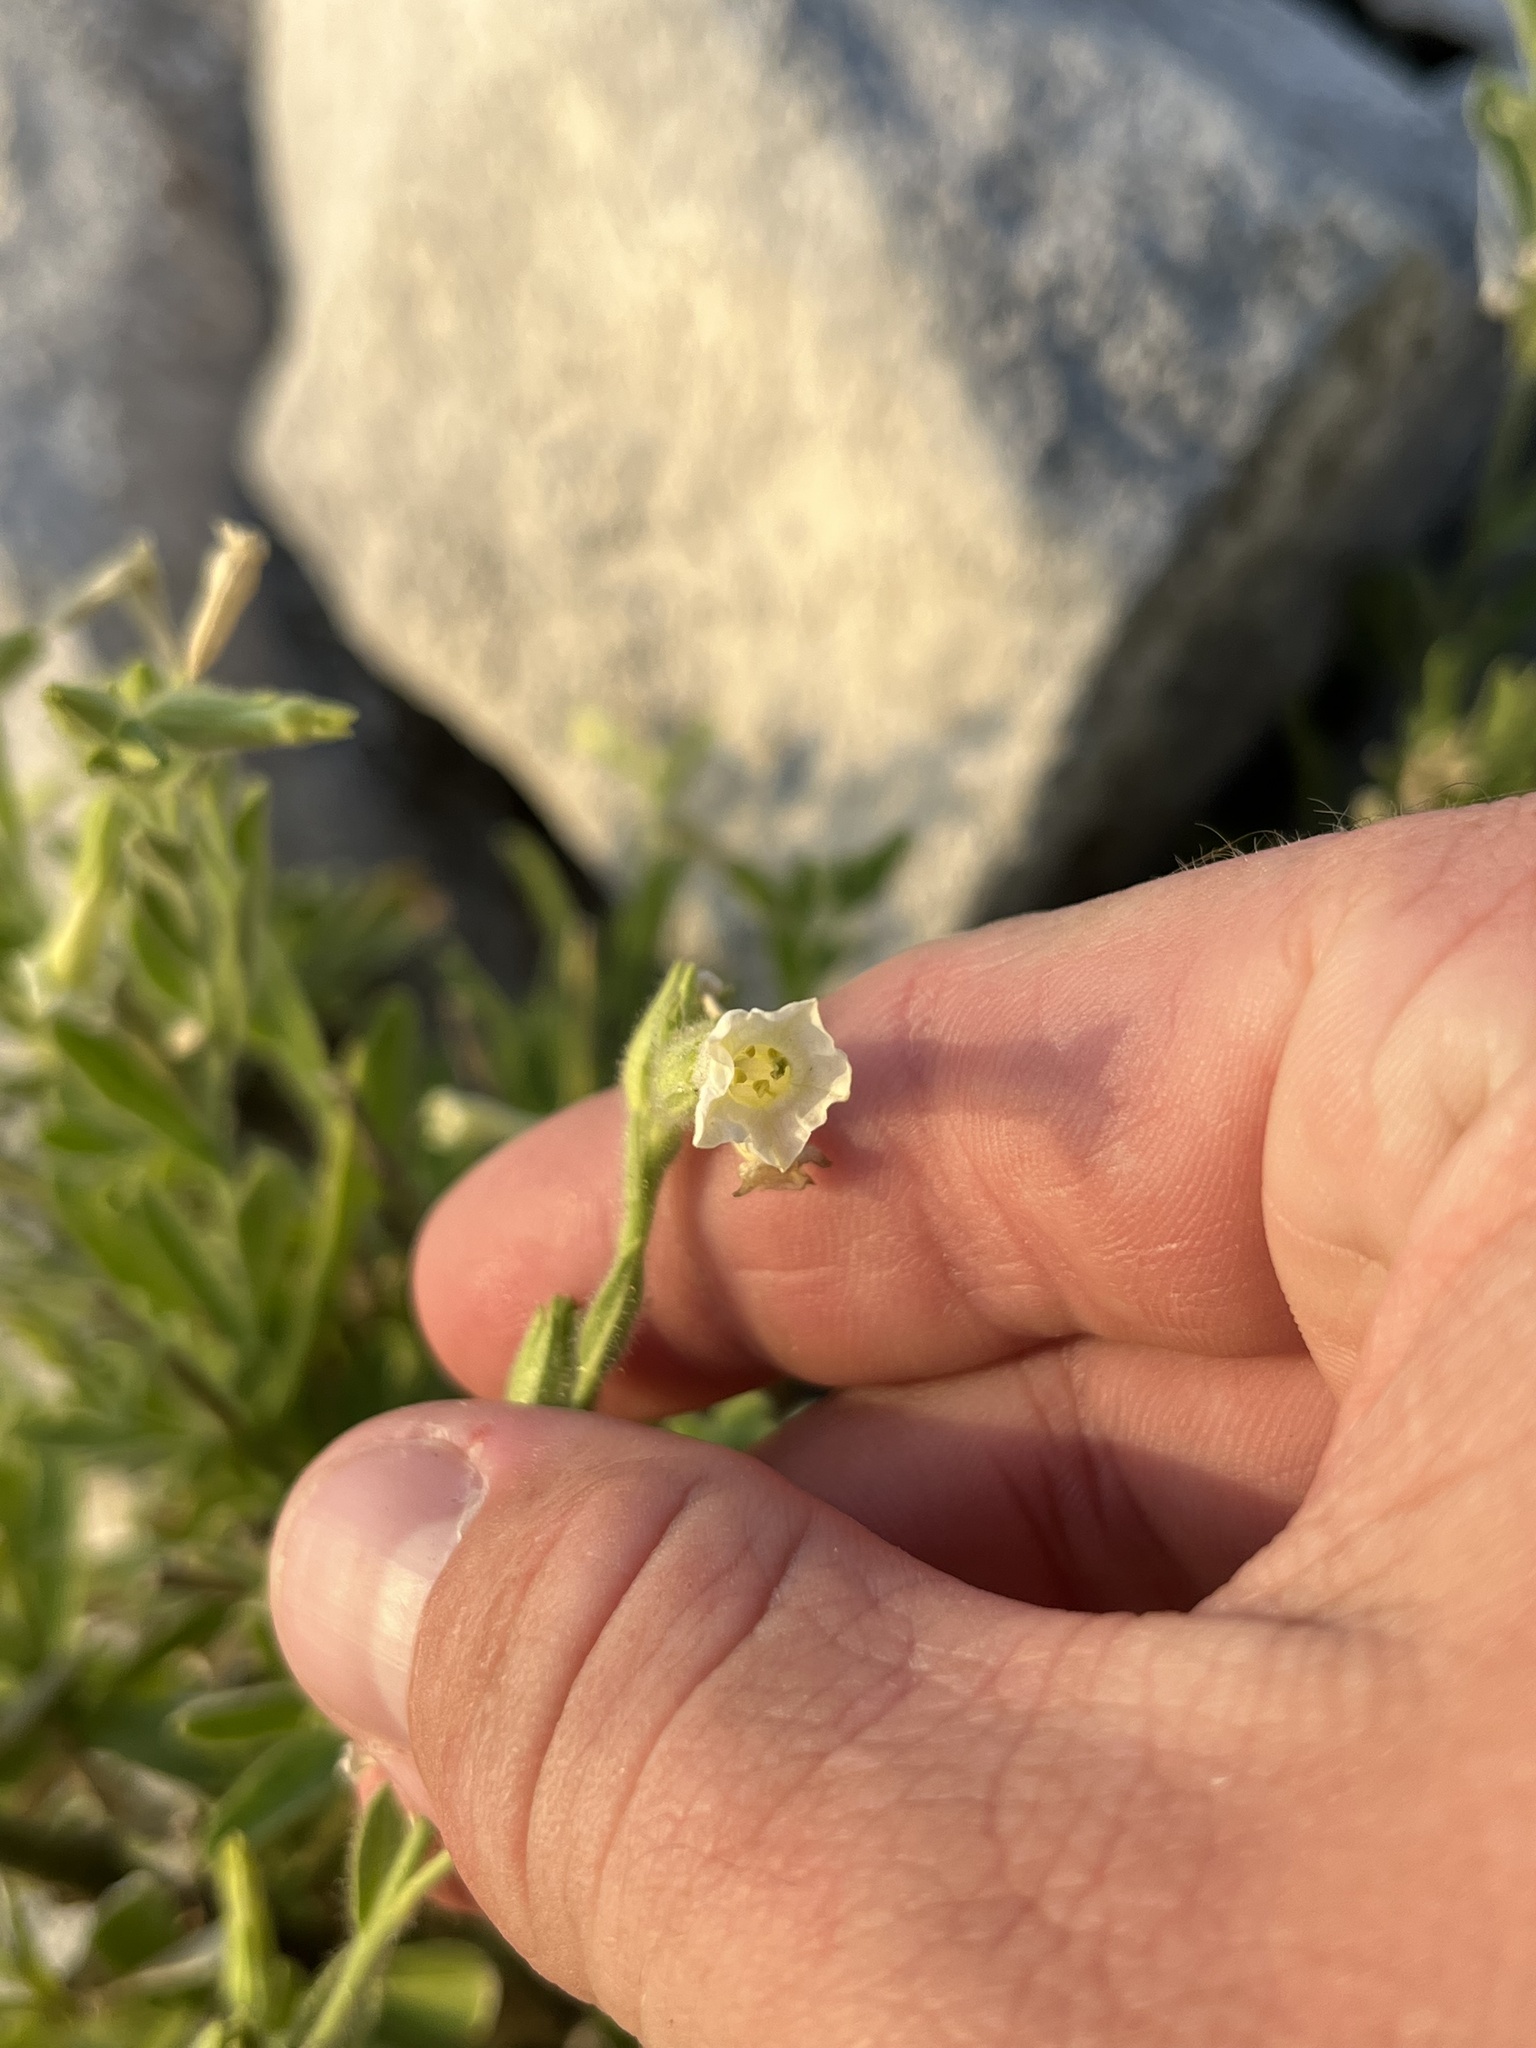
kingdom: Plantae
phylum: Tracheophyta
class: Magnoliopsida
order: Solanales
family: Solanaceae
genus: Nicotiana
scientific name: Nicotiana obtusifolia
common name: Desert tobacco
